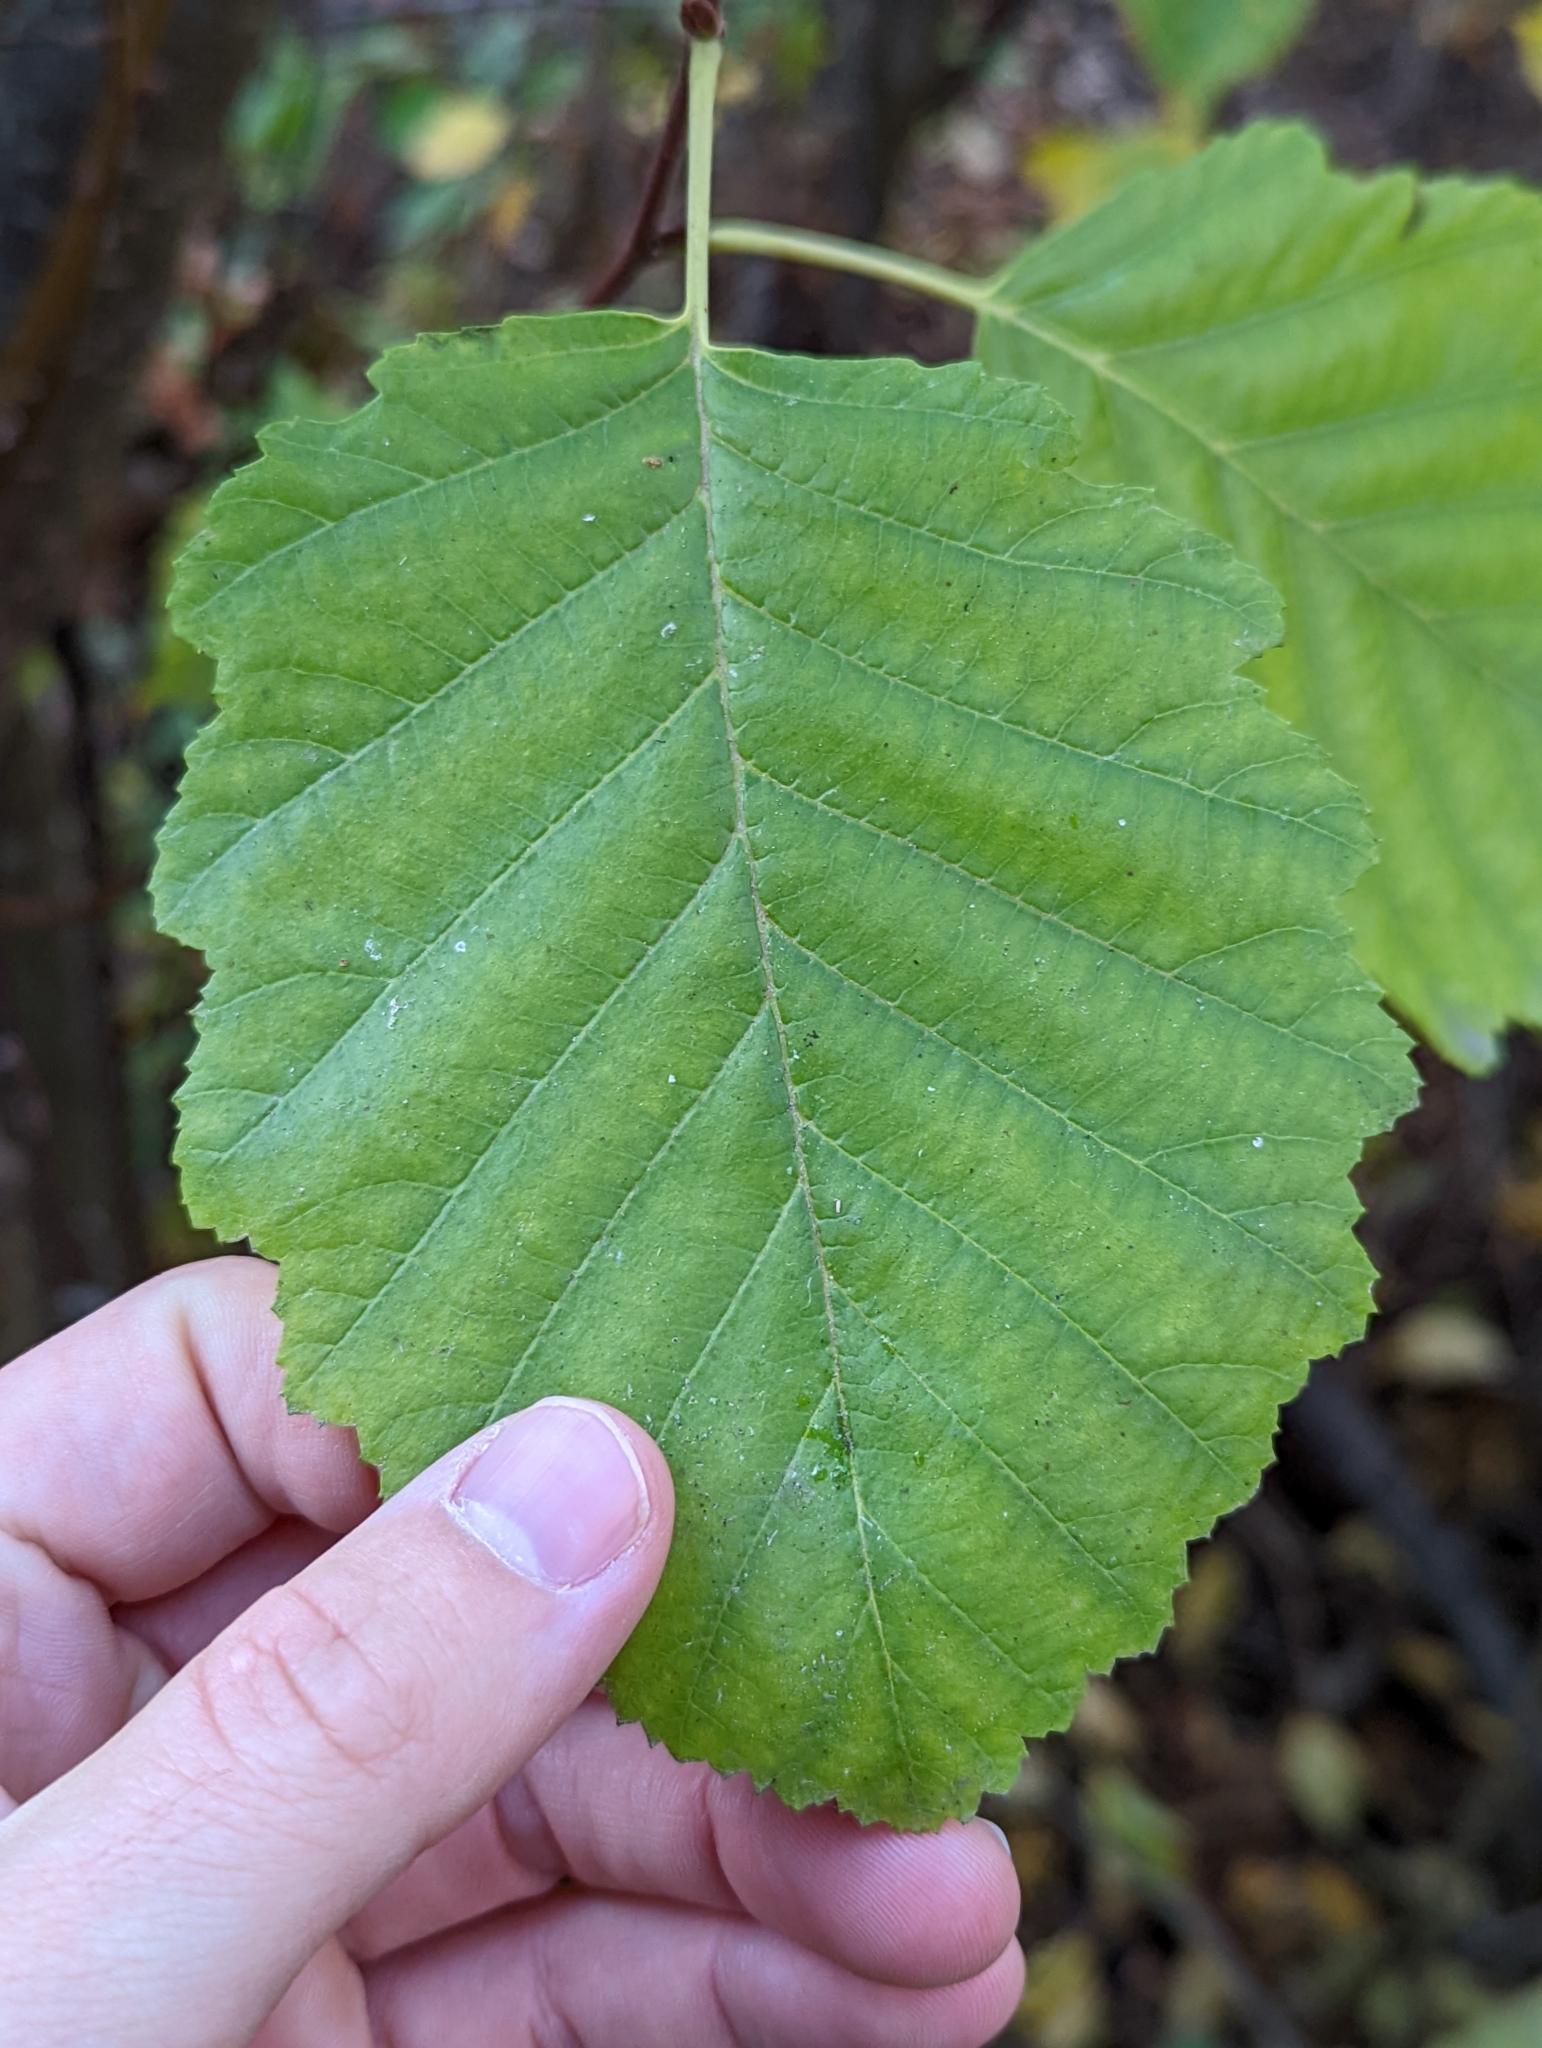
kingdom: Plantae
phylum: Tracheophyta
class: Magnoliopsida
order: Fagales
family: Betulaceae
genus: Alnus
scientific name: Alnus incana
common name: Grey alder
